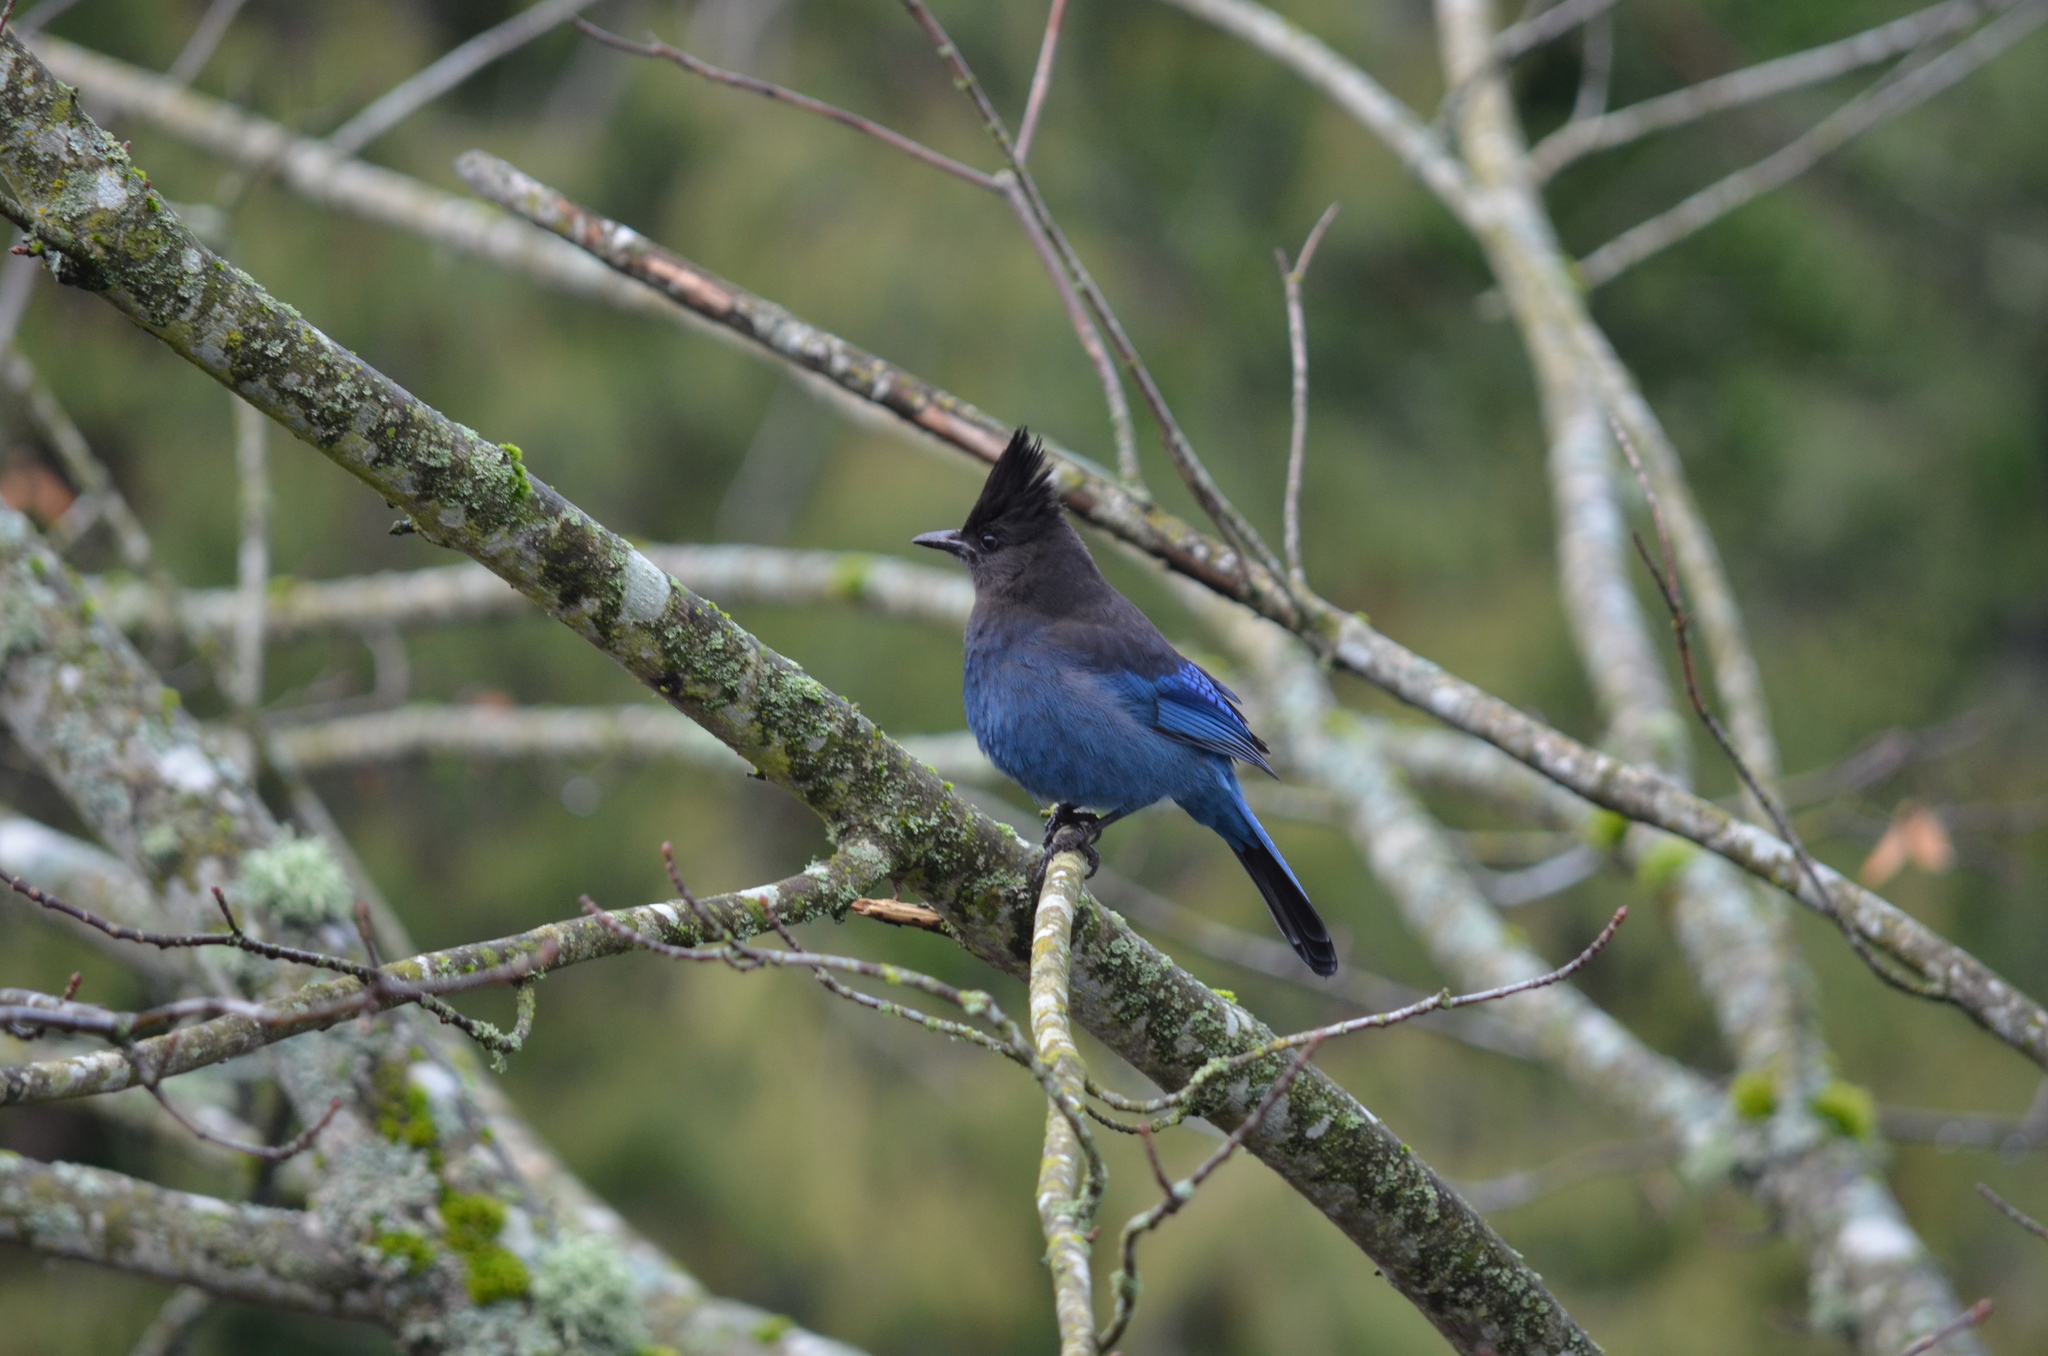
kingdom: Animalia
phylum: Chordata
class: Aves
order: Passeriformes
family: Corvidae
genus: Cyanocitta
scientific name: Cyanocitta stelleri
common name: Steller's jay
